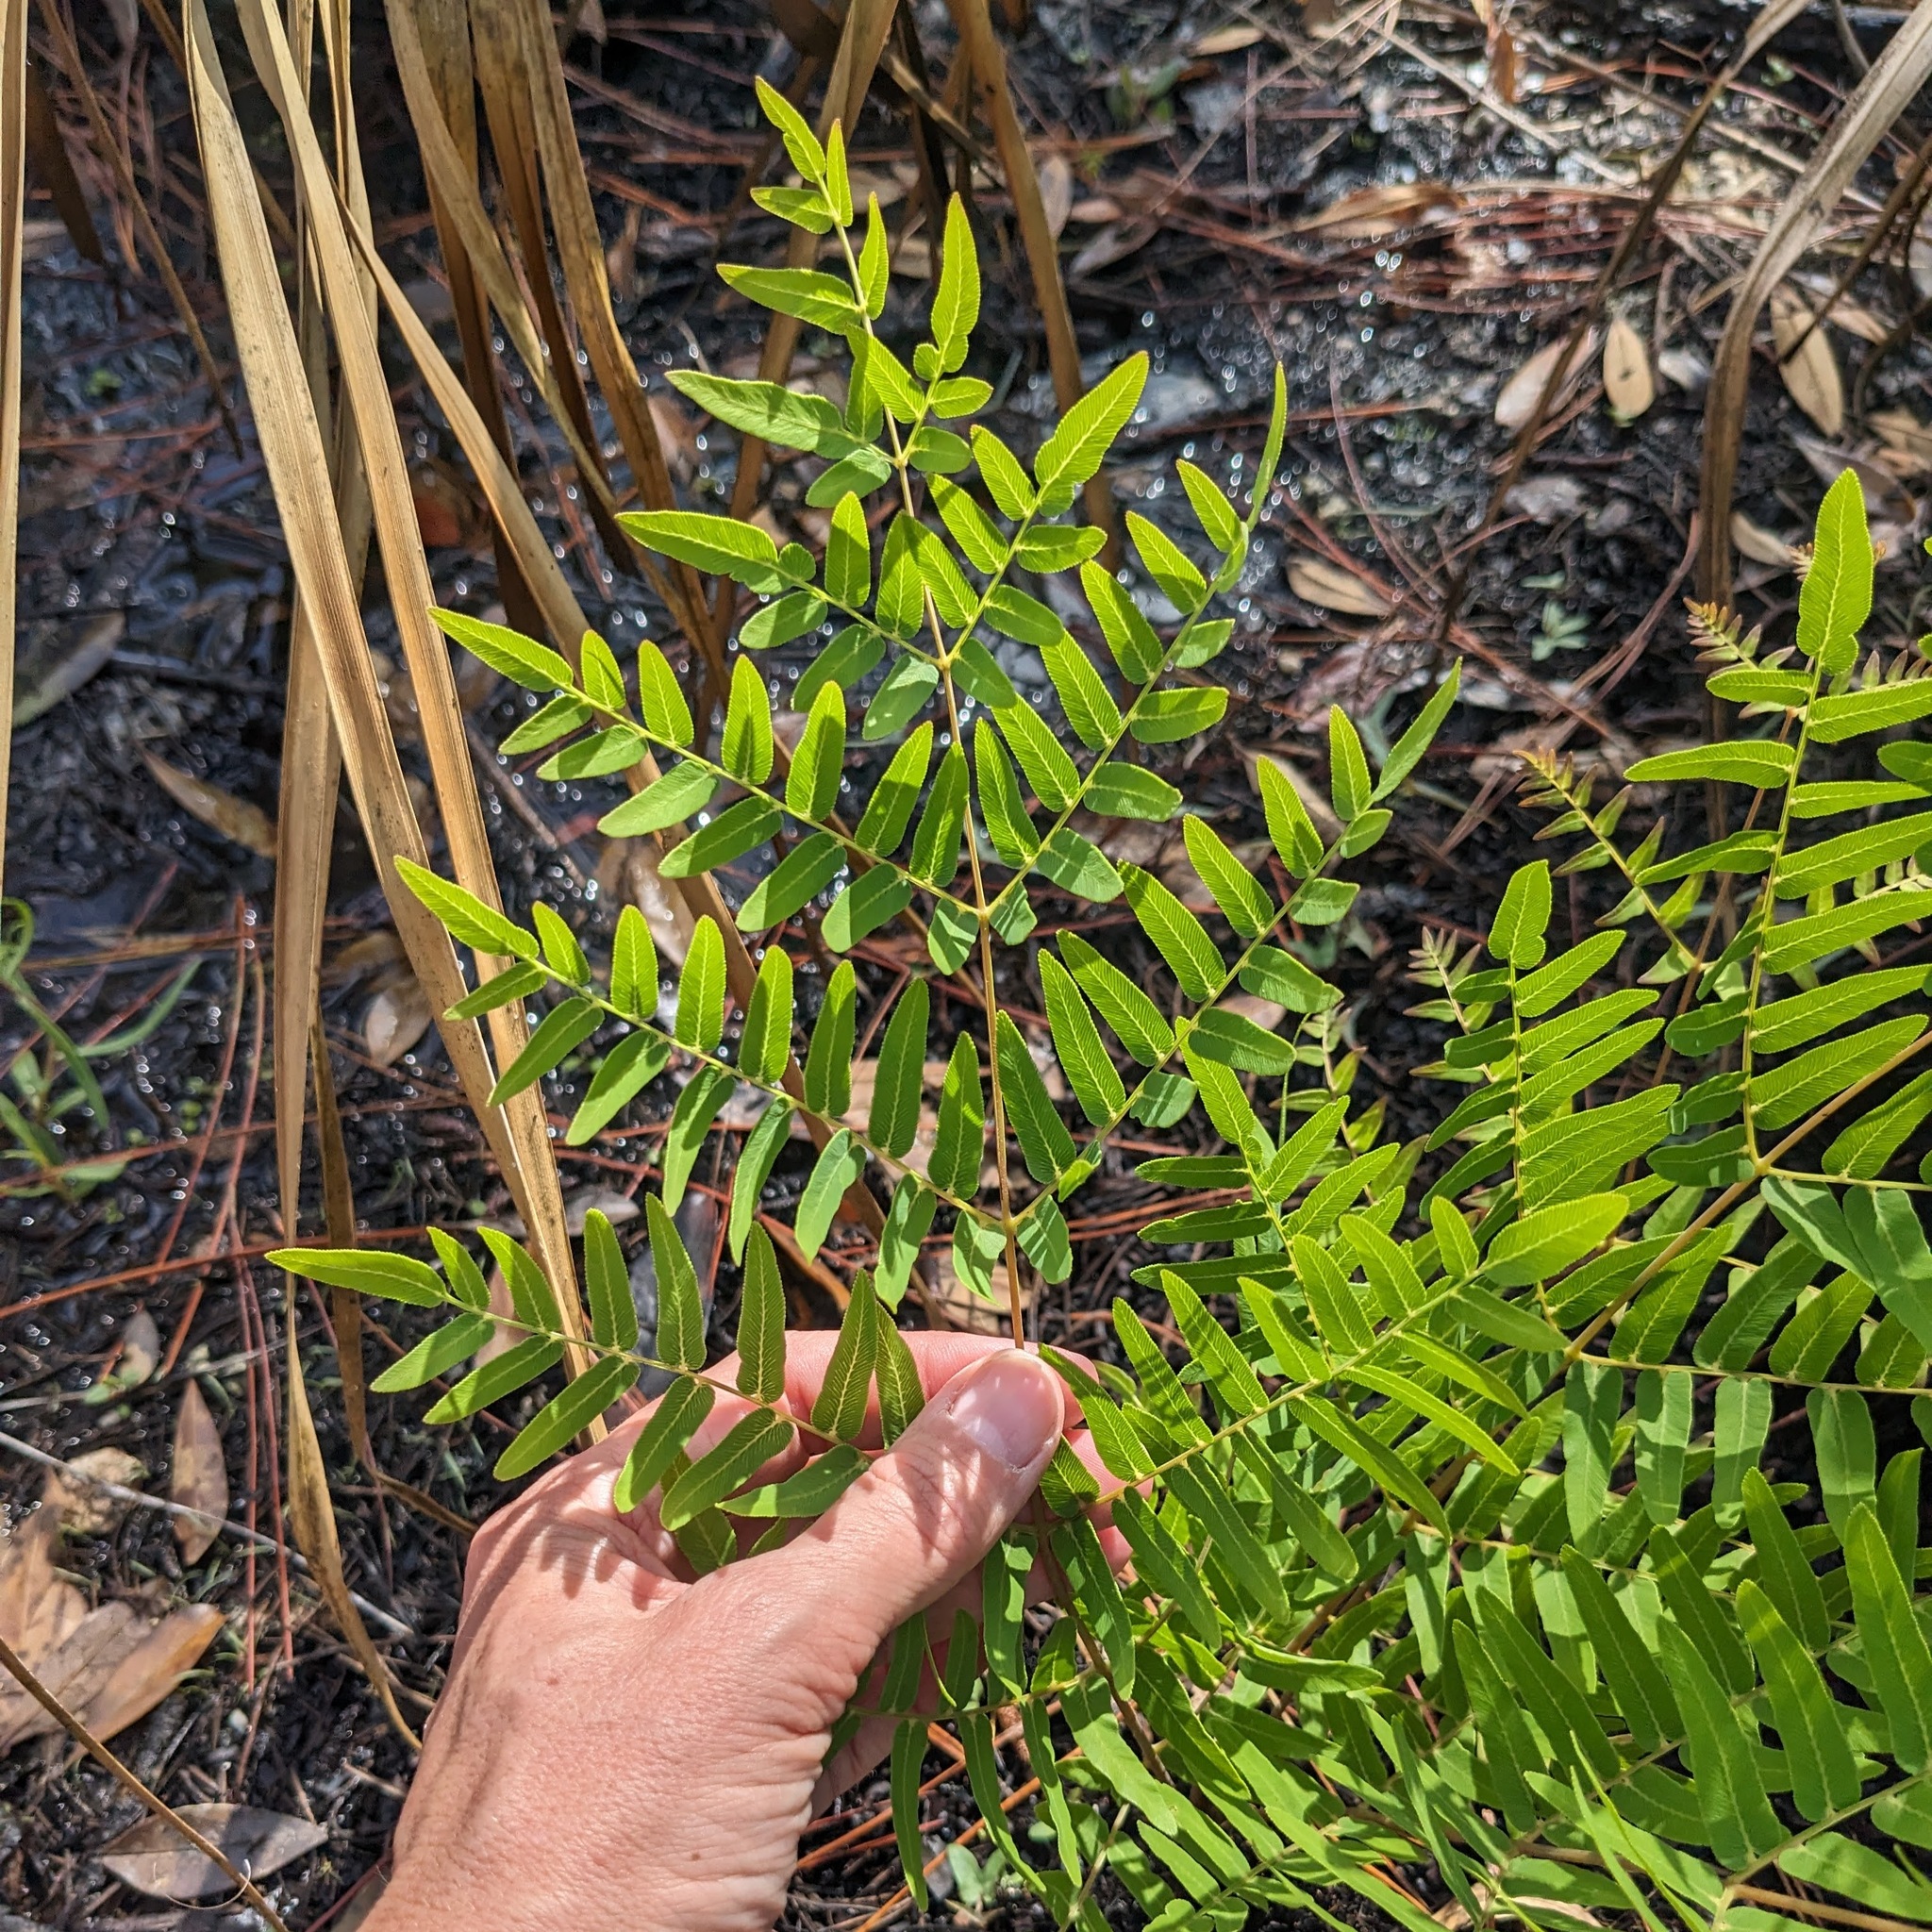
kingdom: Plantae
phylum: Tracheophyta
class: Polypodiopsida
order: Osmundales
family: Osmundaceae
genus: Osmunda
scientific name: Osmunda spectabilis
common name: American royal fern
